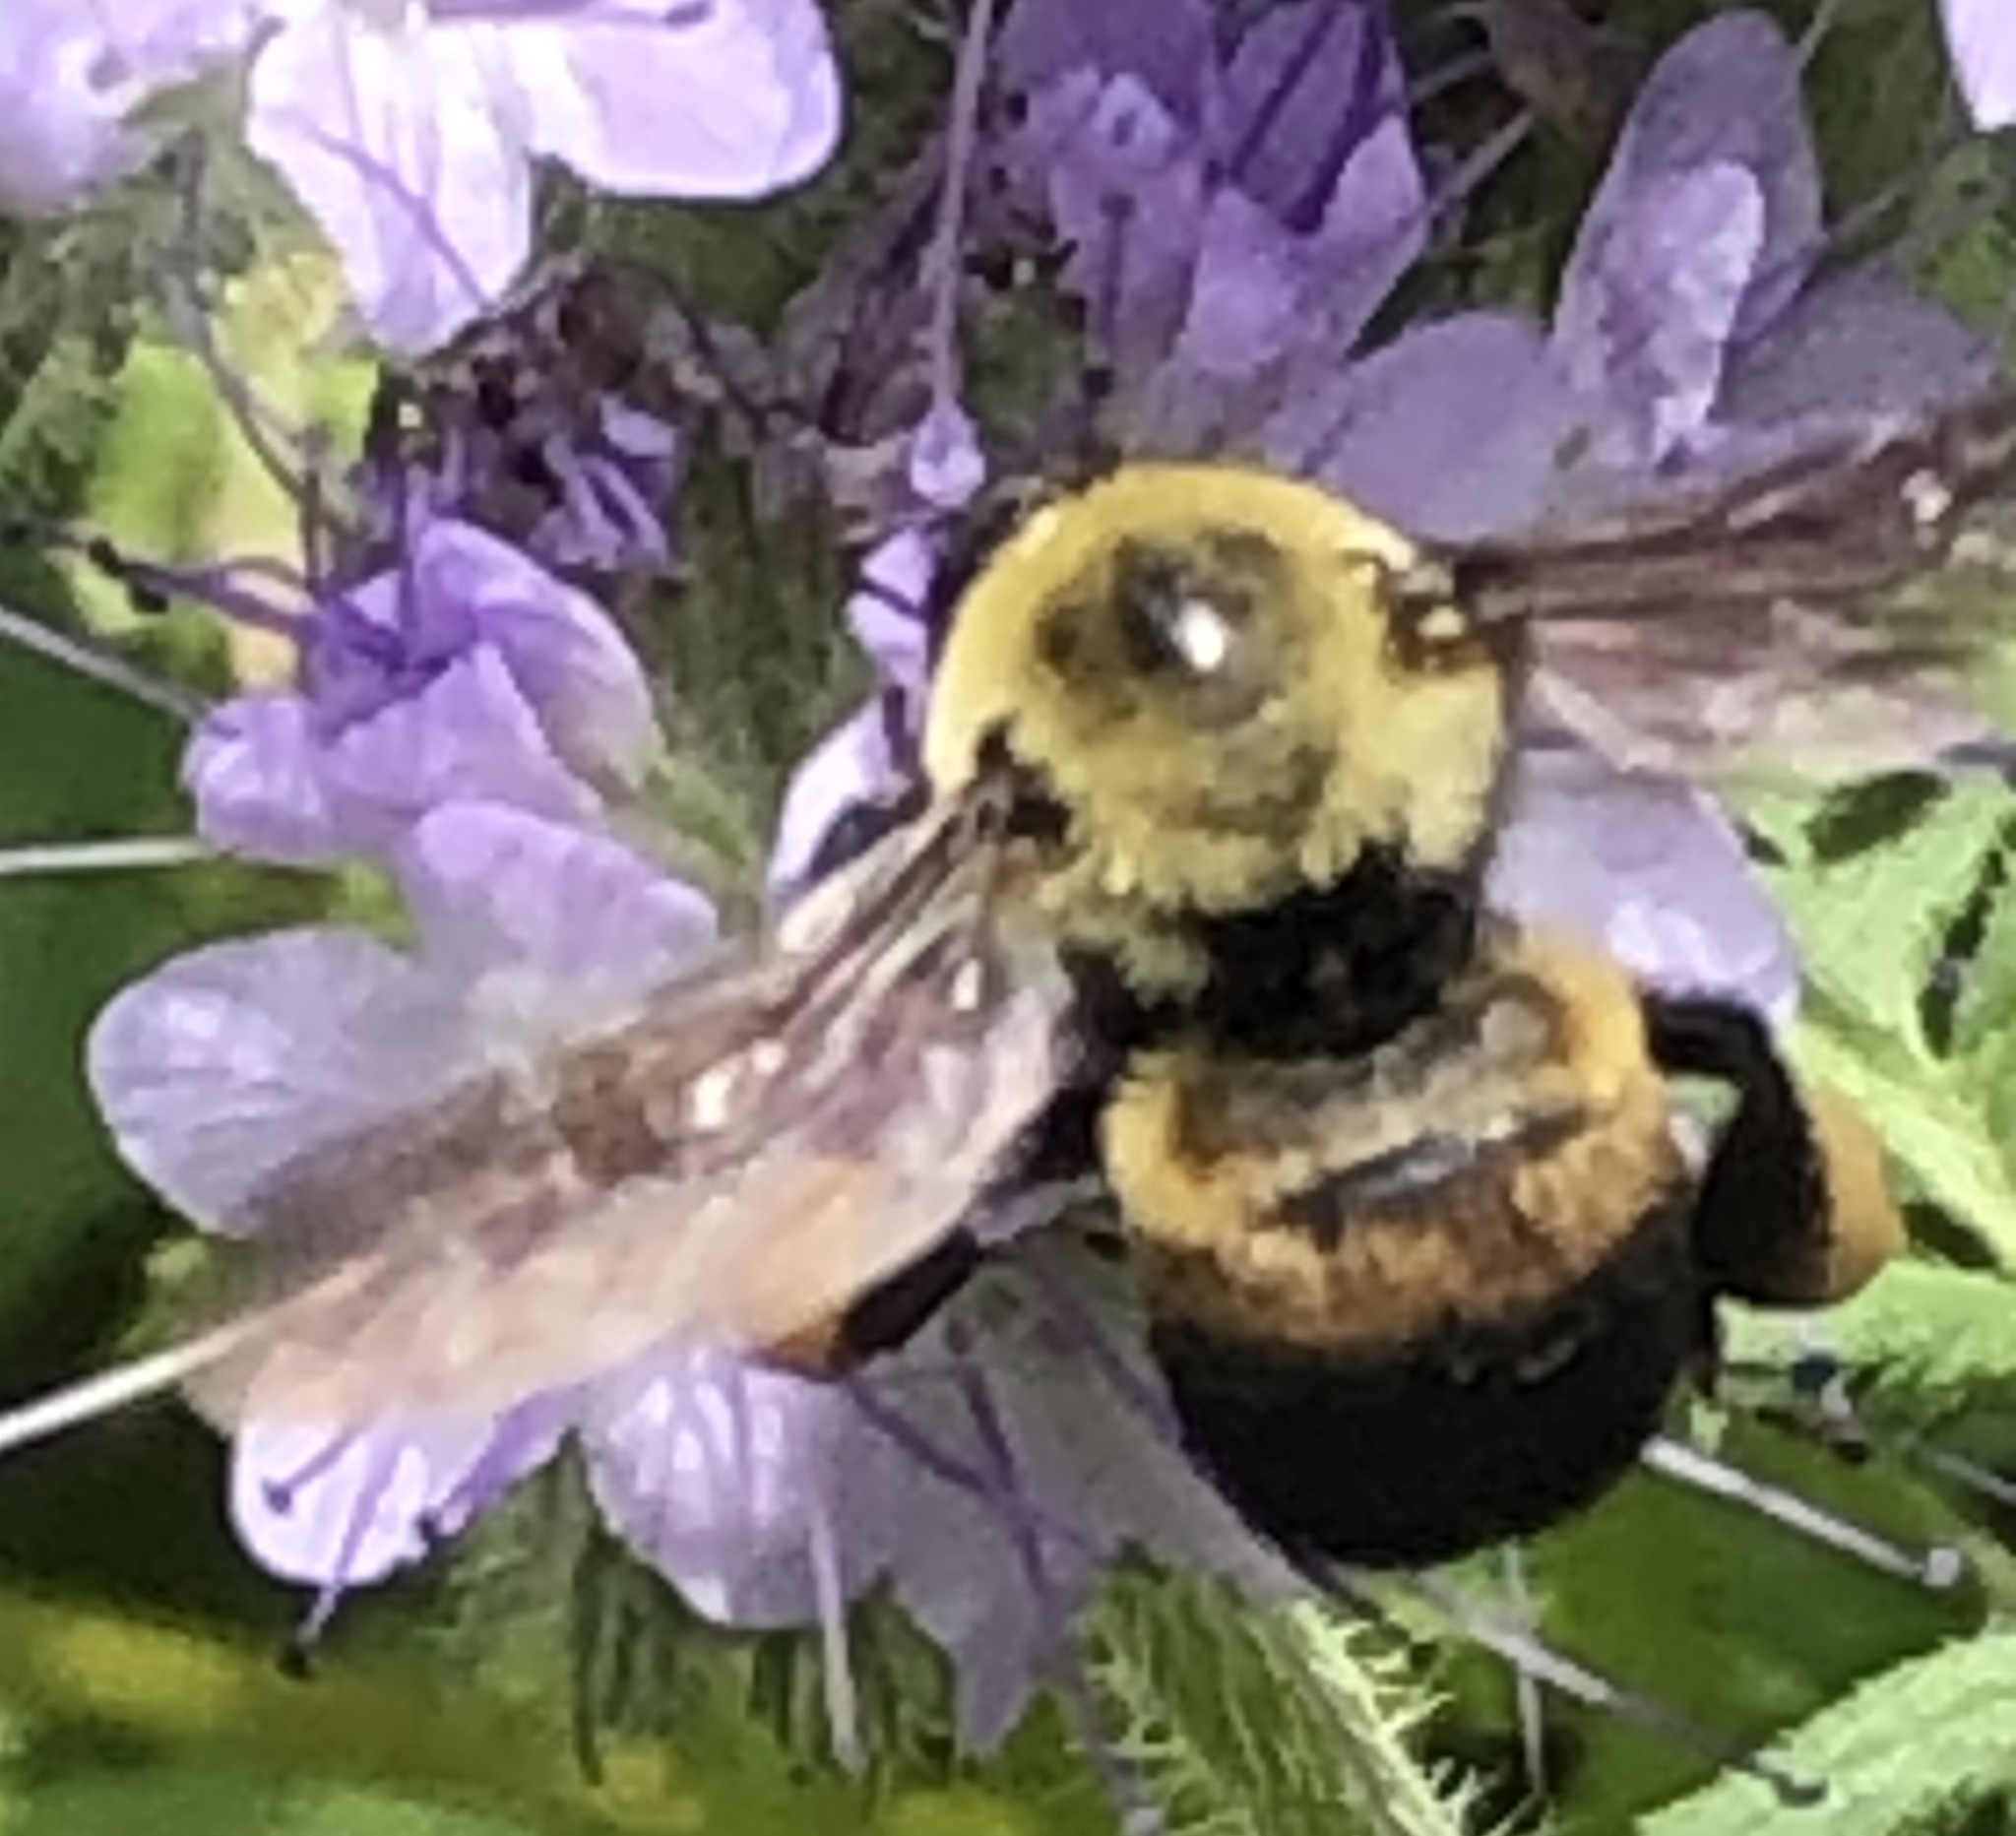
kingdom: Animalia
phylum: Arthropoda
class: Insecta
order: Hymenoptera
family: Apidae
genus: Bombus
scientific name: Bombus griseocollis
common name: Brown-belted bumble bee
